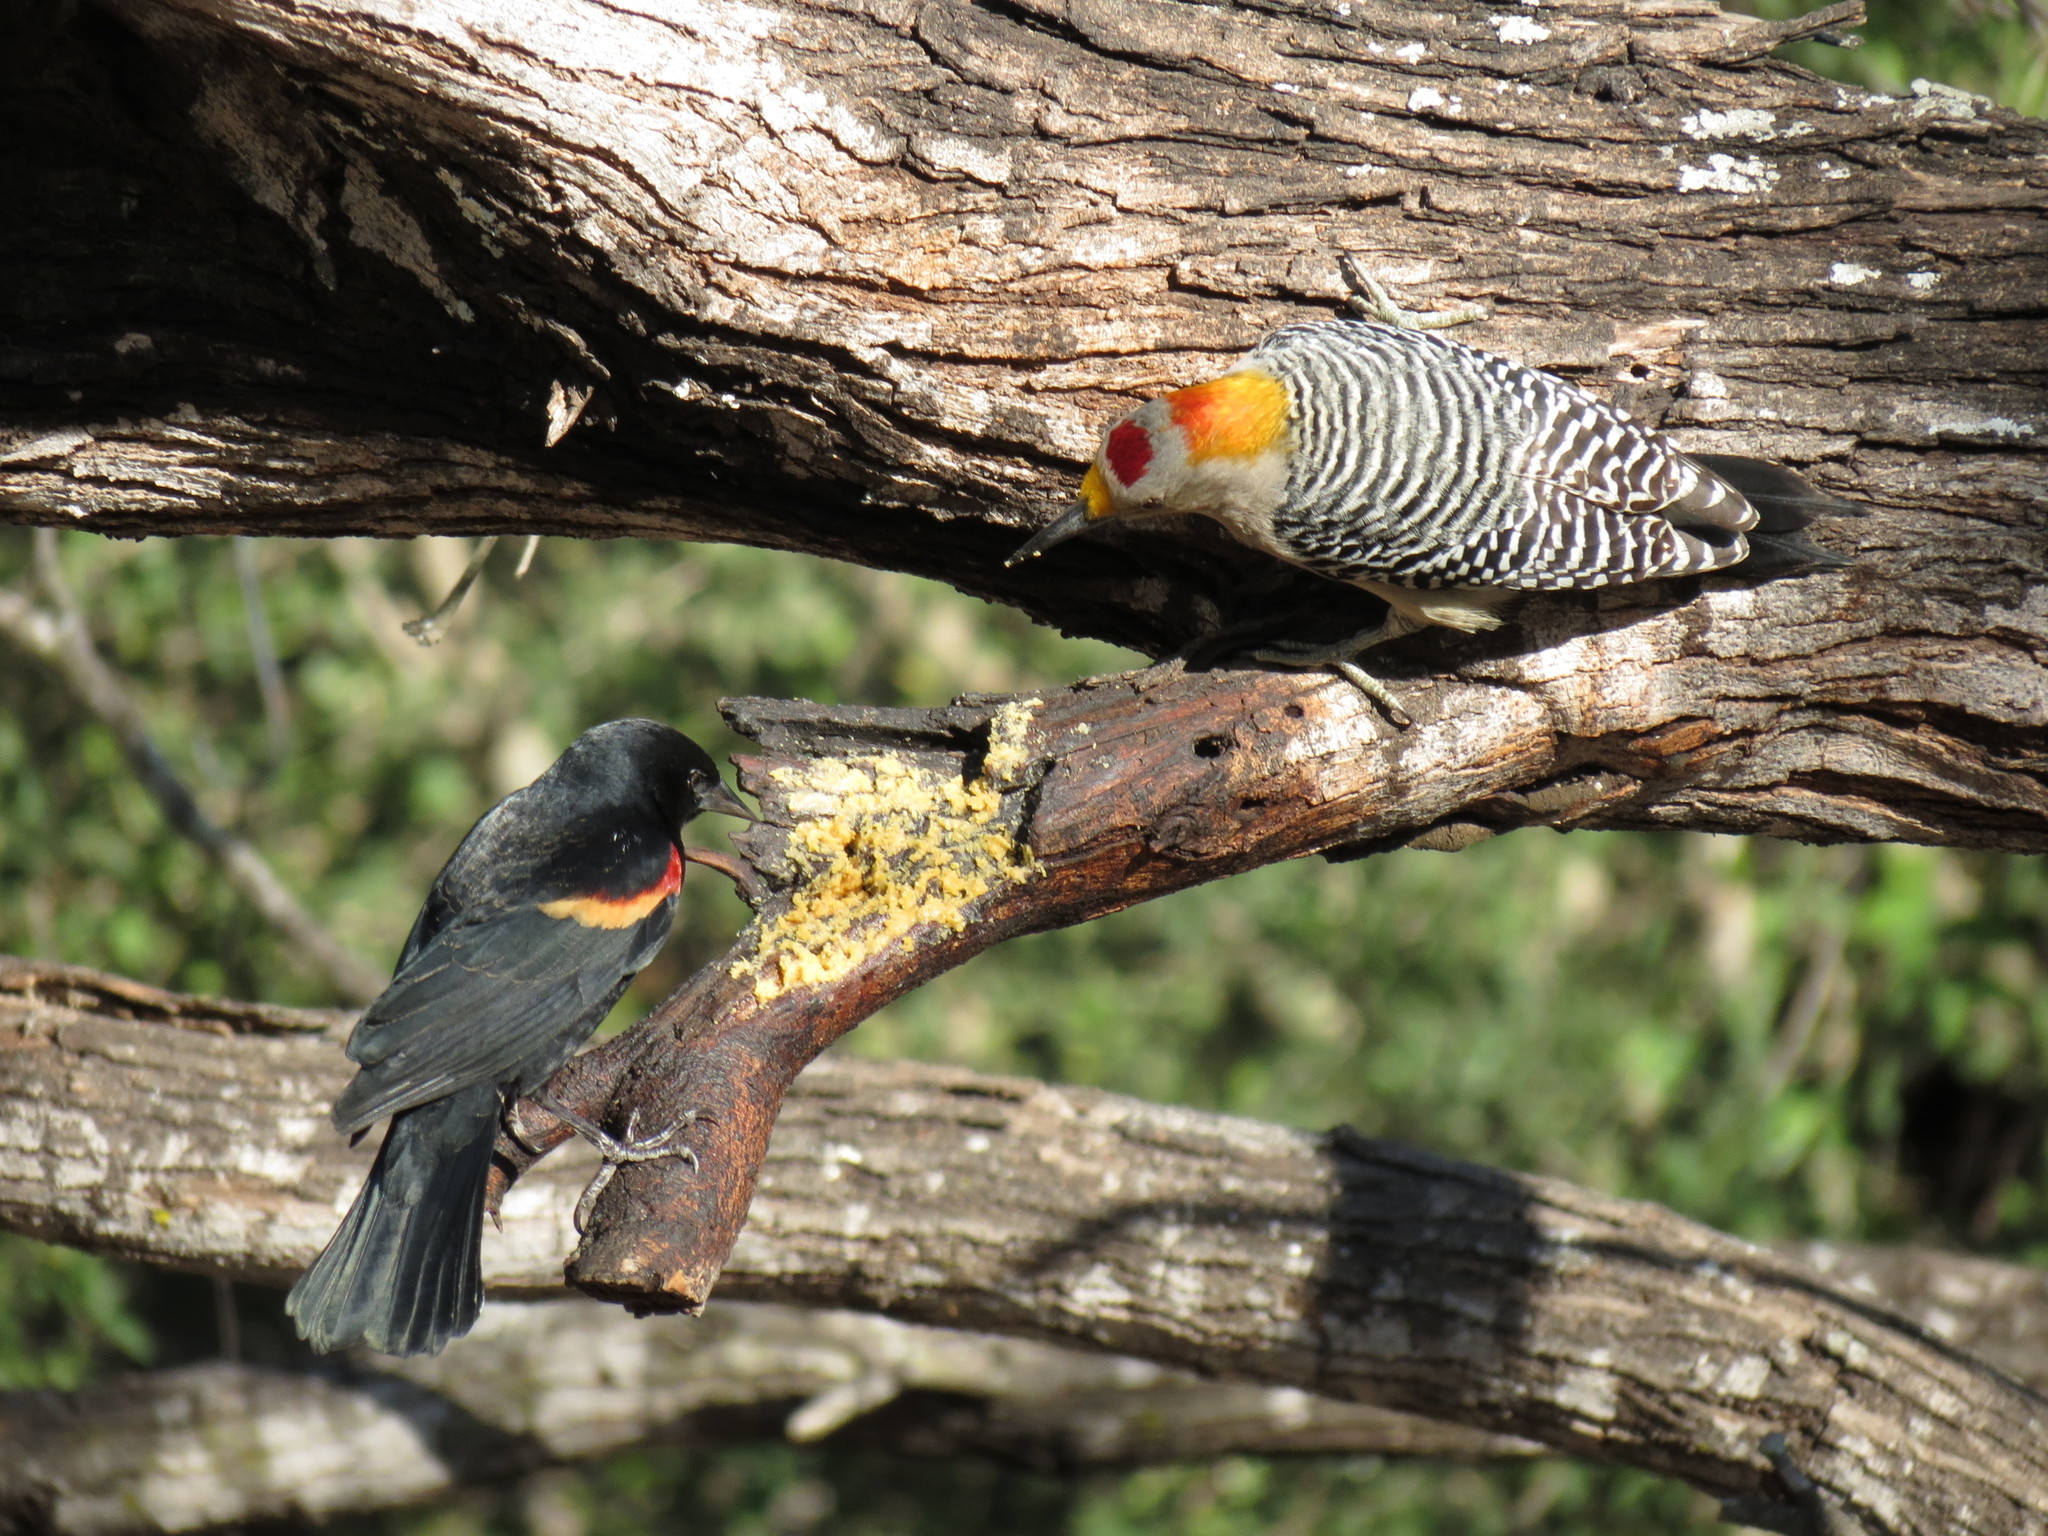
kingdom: Animalia
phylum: Chordata
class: Aves
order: Piciformes
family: Picidae
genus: Melanerpes
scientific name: Melanerpes aurifrons
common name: Golden-fronted woodpecker
